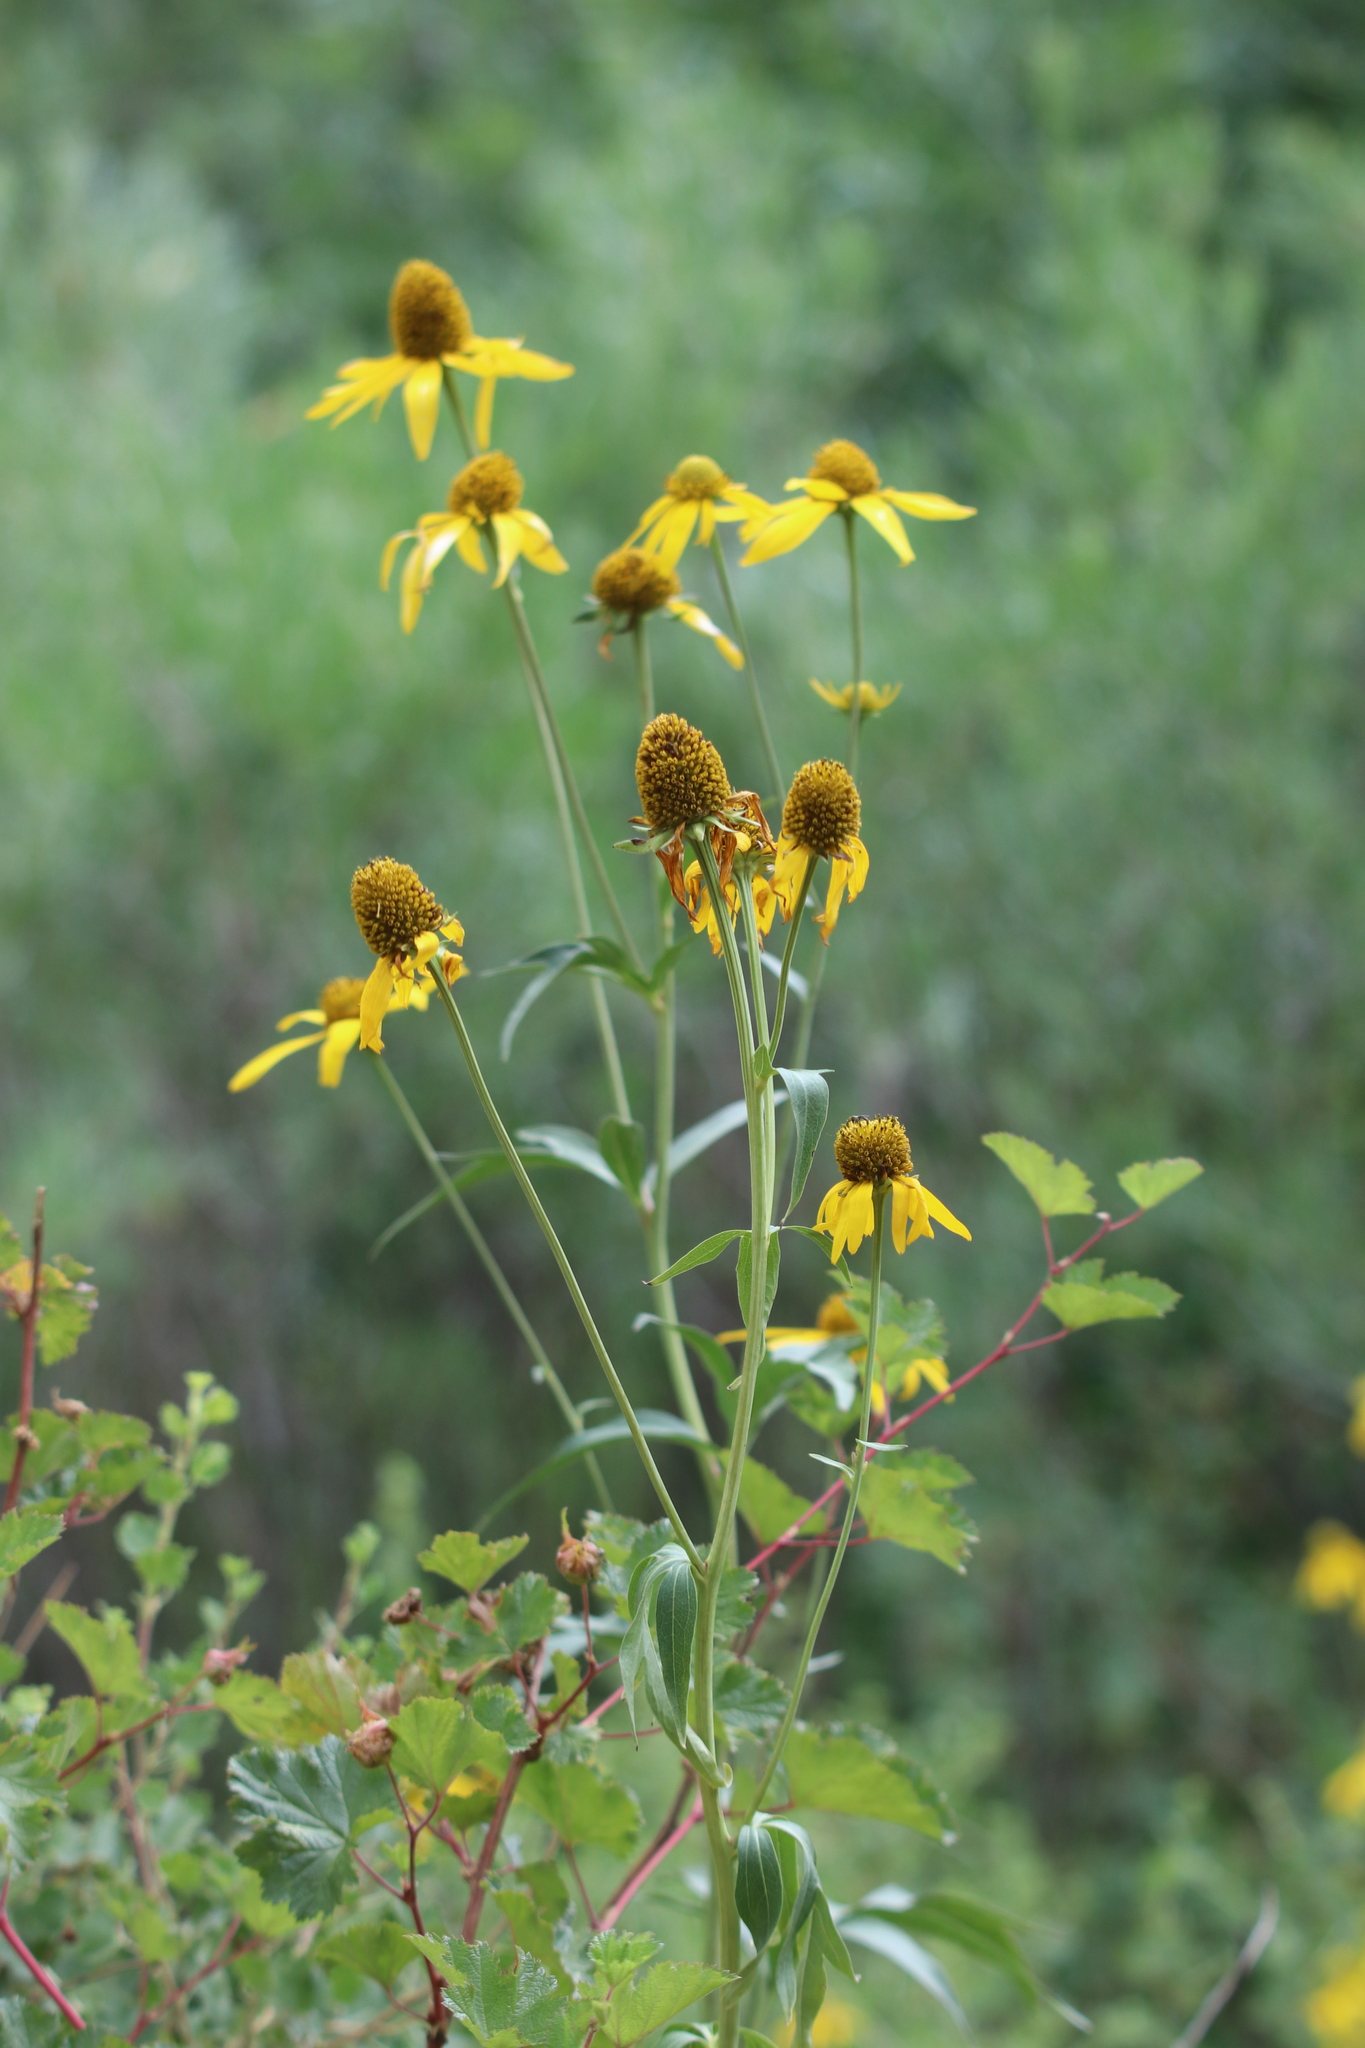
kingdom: Plantae
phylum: Tracheophyta
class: Magnoliopsida
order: Asterales
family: Asteraceae
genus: Rudbeckia
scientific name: Rudbeckia laciniata
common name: Coneflower
